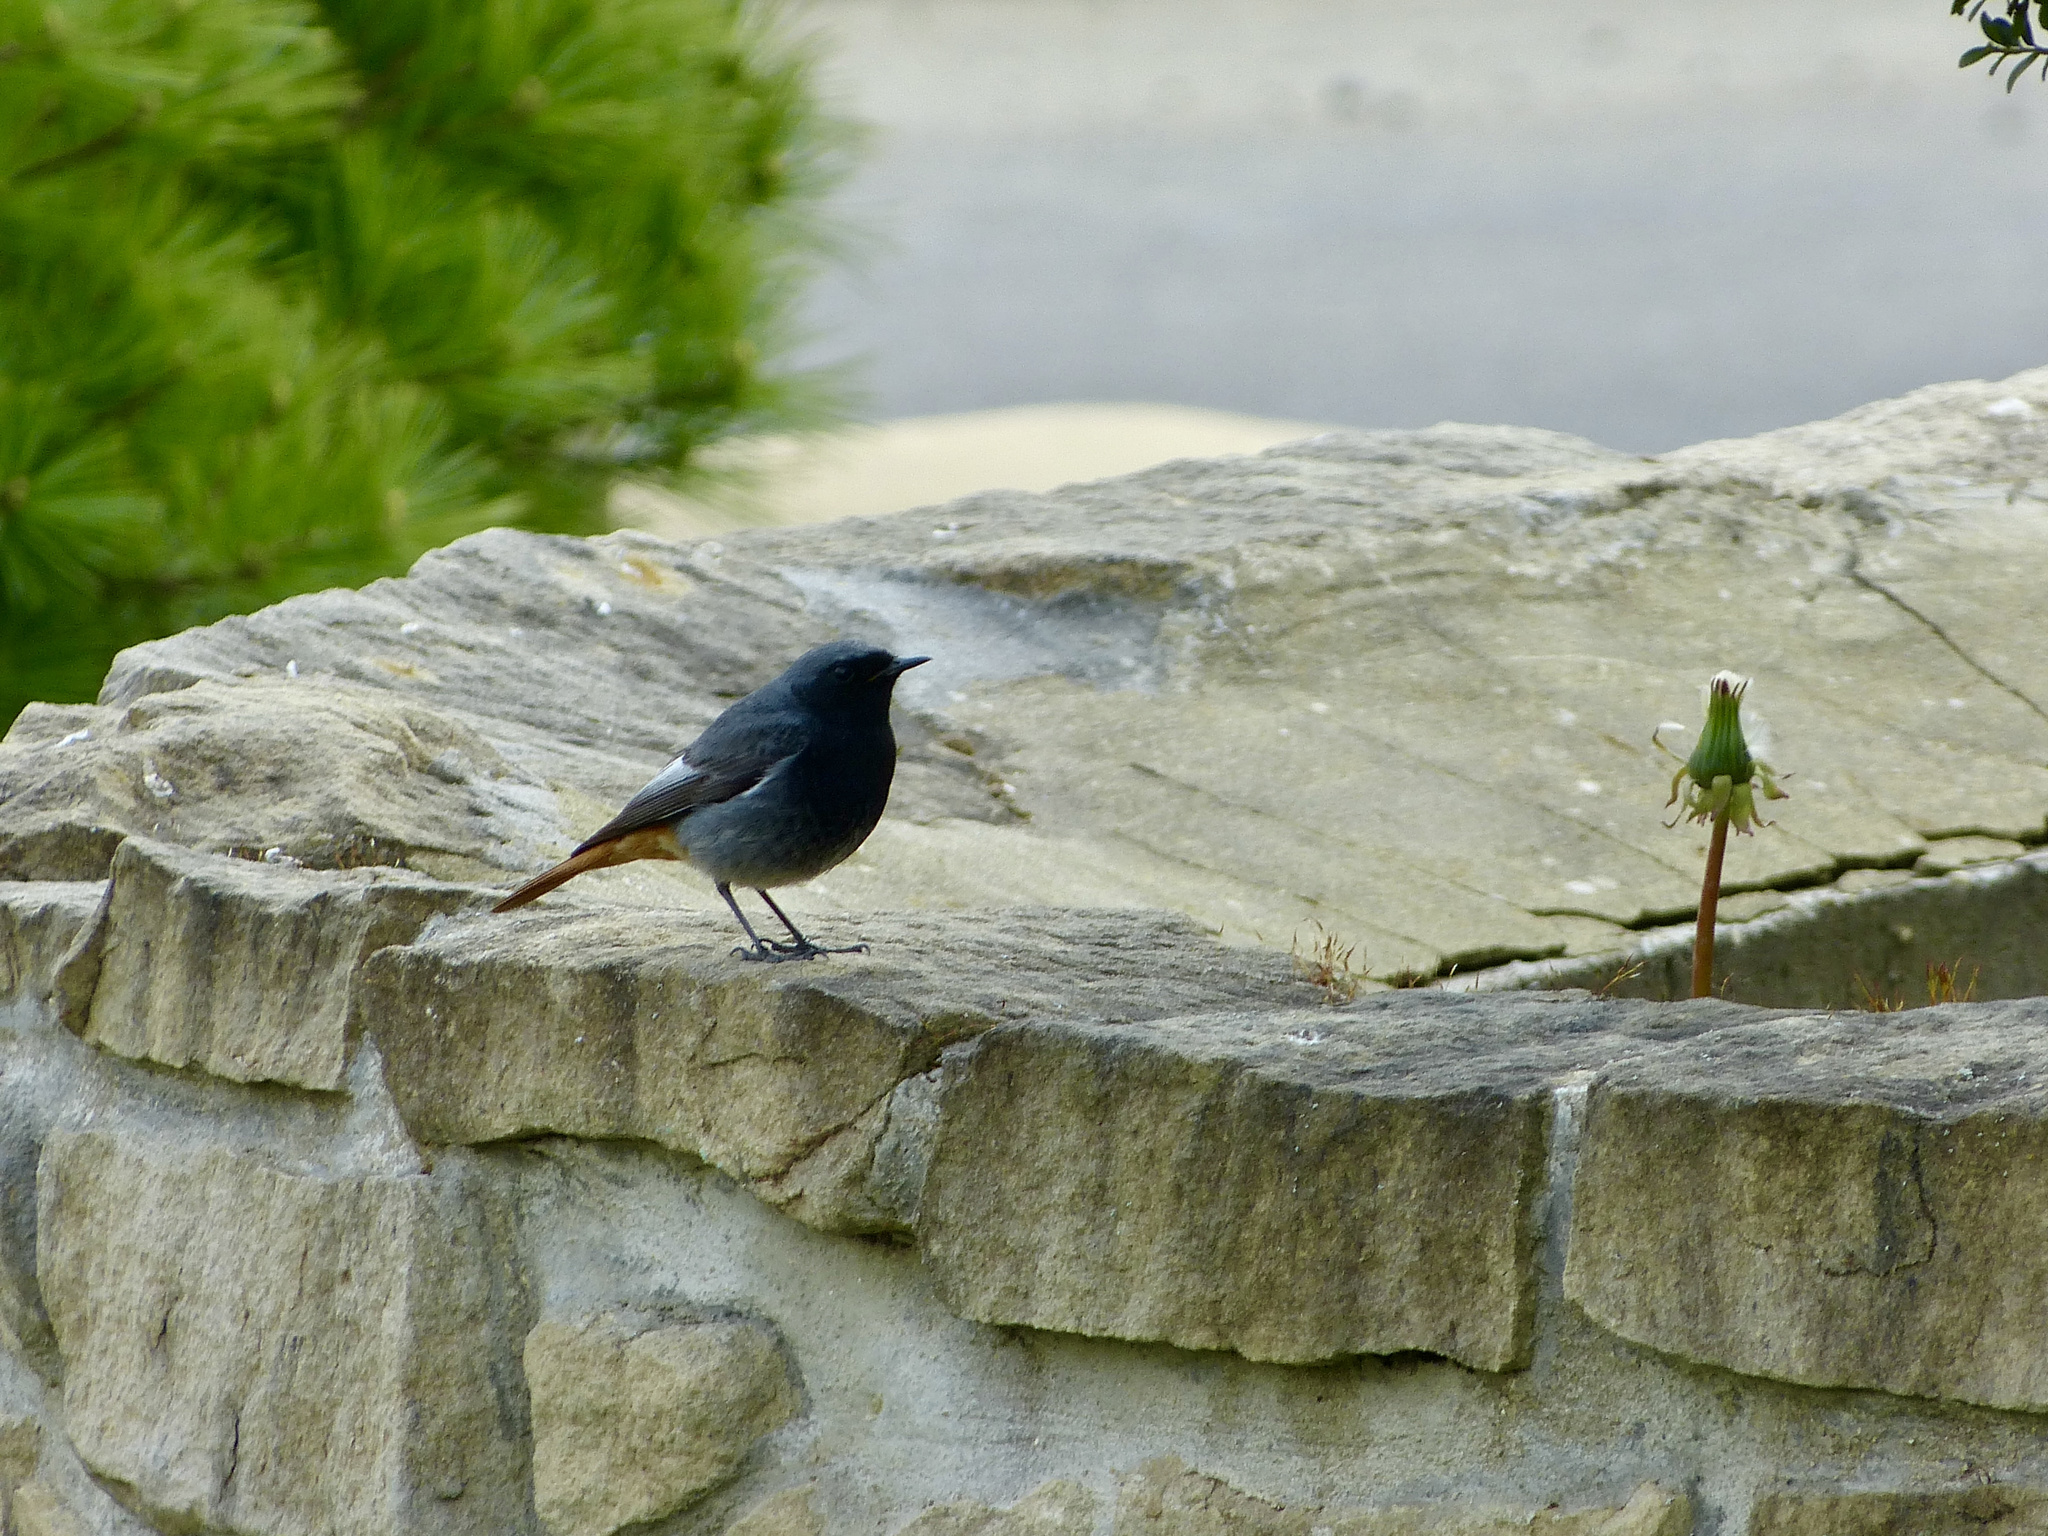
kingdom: Animalia
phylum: Chordata
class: Aves
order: Passeriformes
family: Muscicapidae
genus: Phoenicurus
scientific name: Phoenicurus ochruros
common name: Black redstart
